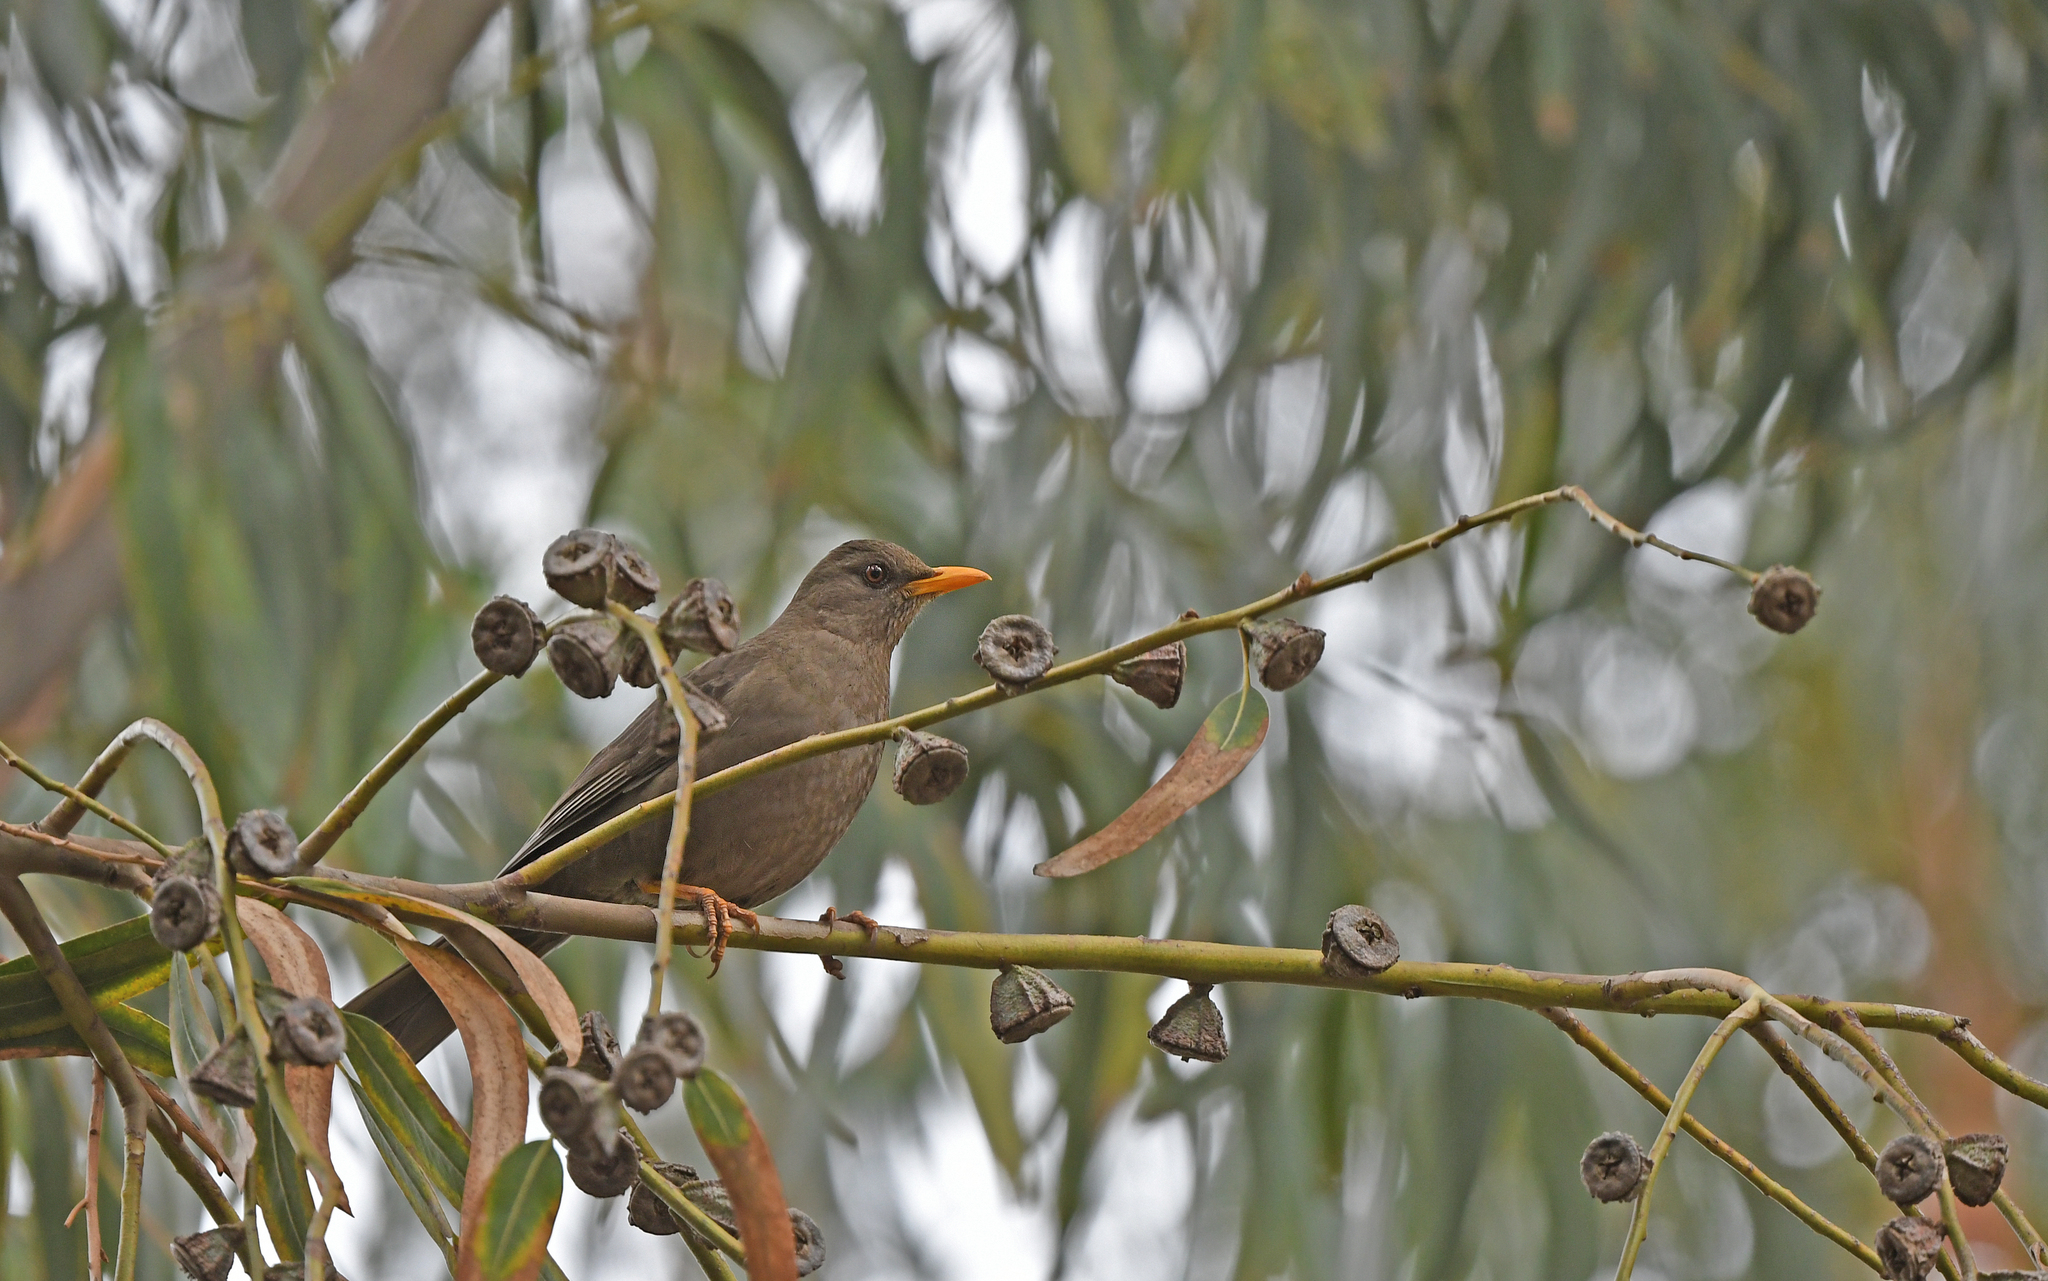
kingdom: Animalia
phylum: Chordata
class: Aves
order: Passeriformes
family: Turdidae
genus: Turdus
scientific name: Turdus chiguanco
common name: Chiguanco thrush
